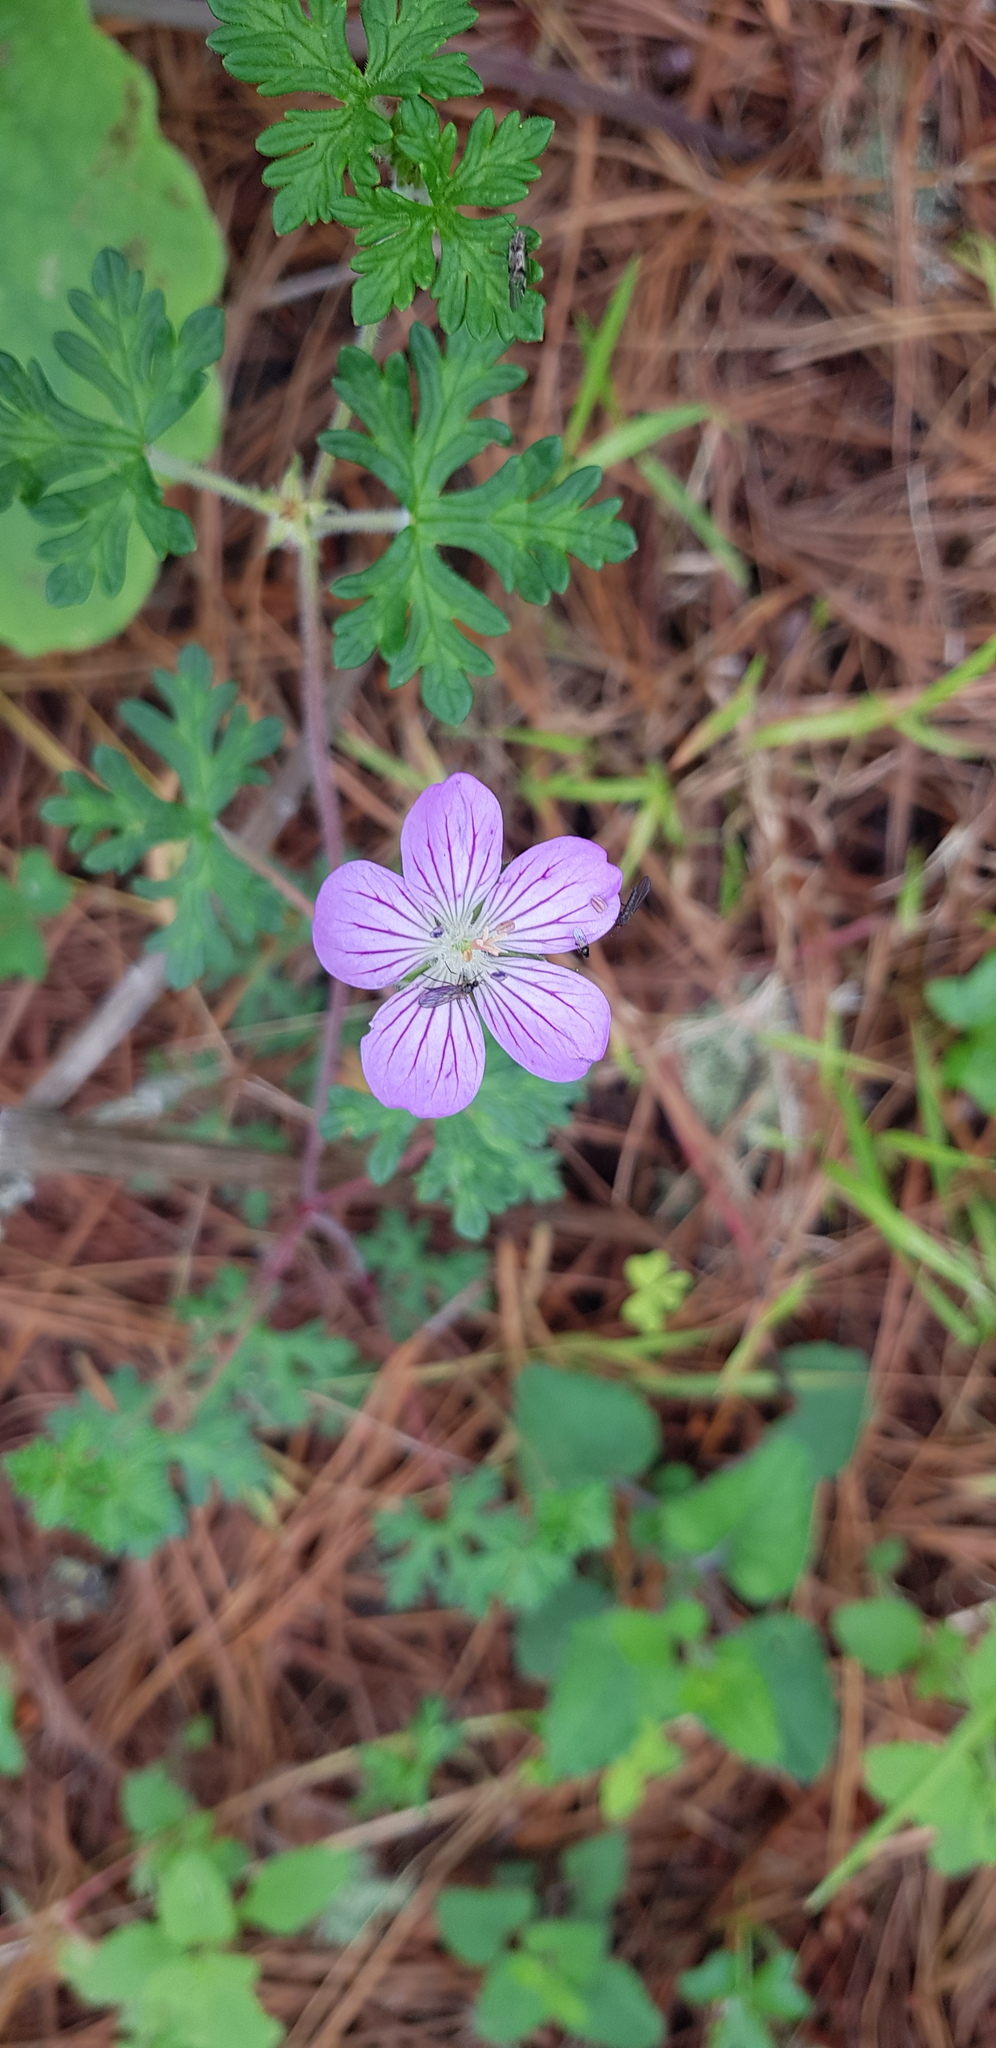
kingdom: Plantae
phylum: Tracheophyta
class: Magnoliopsida
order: Geraniales
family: Geraniaceae
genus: Geranium
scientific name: Geranium potentillifolium
